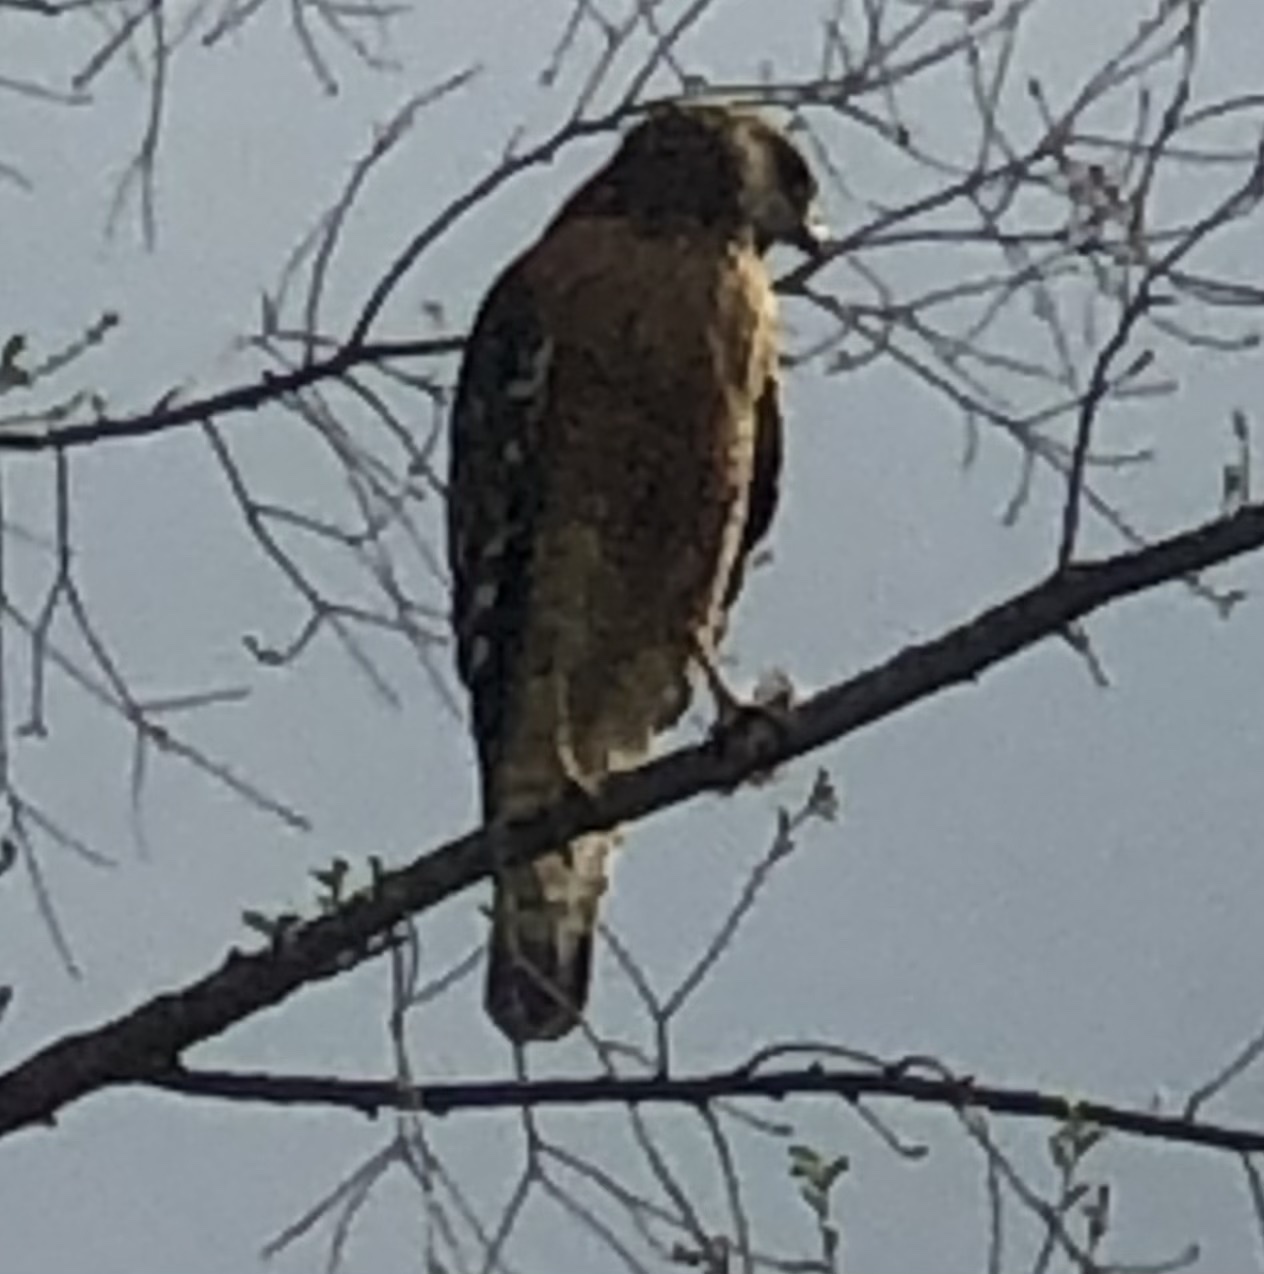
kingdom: Animalia
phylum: Chordata
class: Aves
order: Accipitriformes
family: Accipitridae
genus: Buteo
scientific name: Buteo lineatus
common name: Red-shouldered hawk
